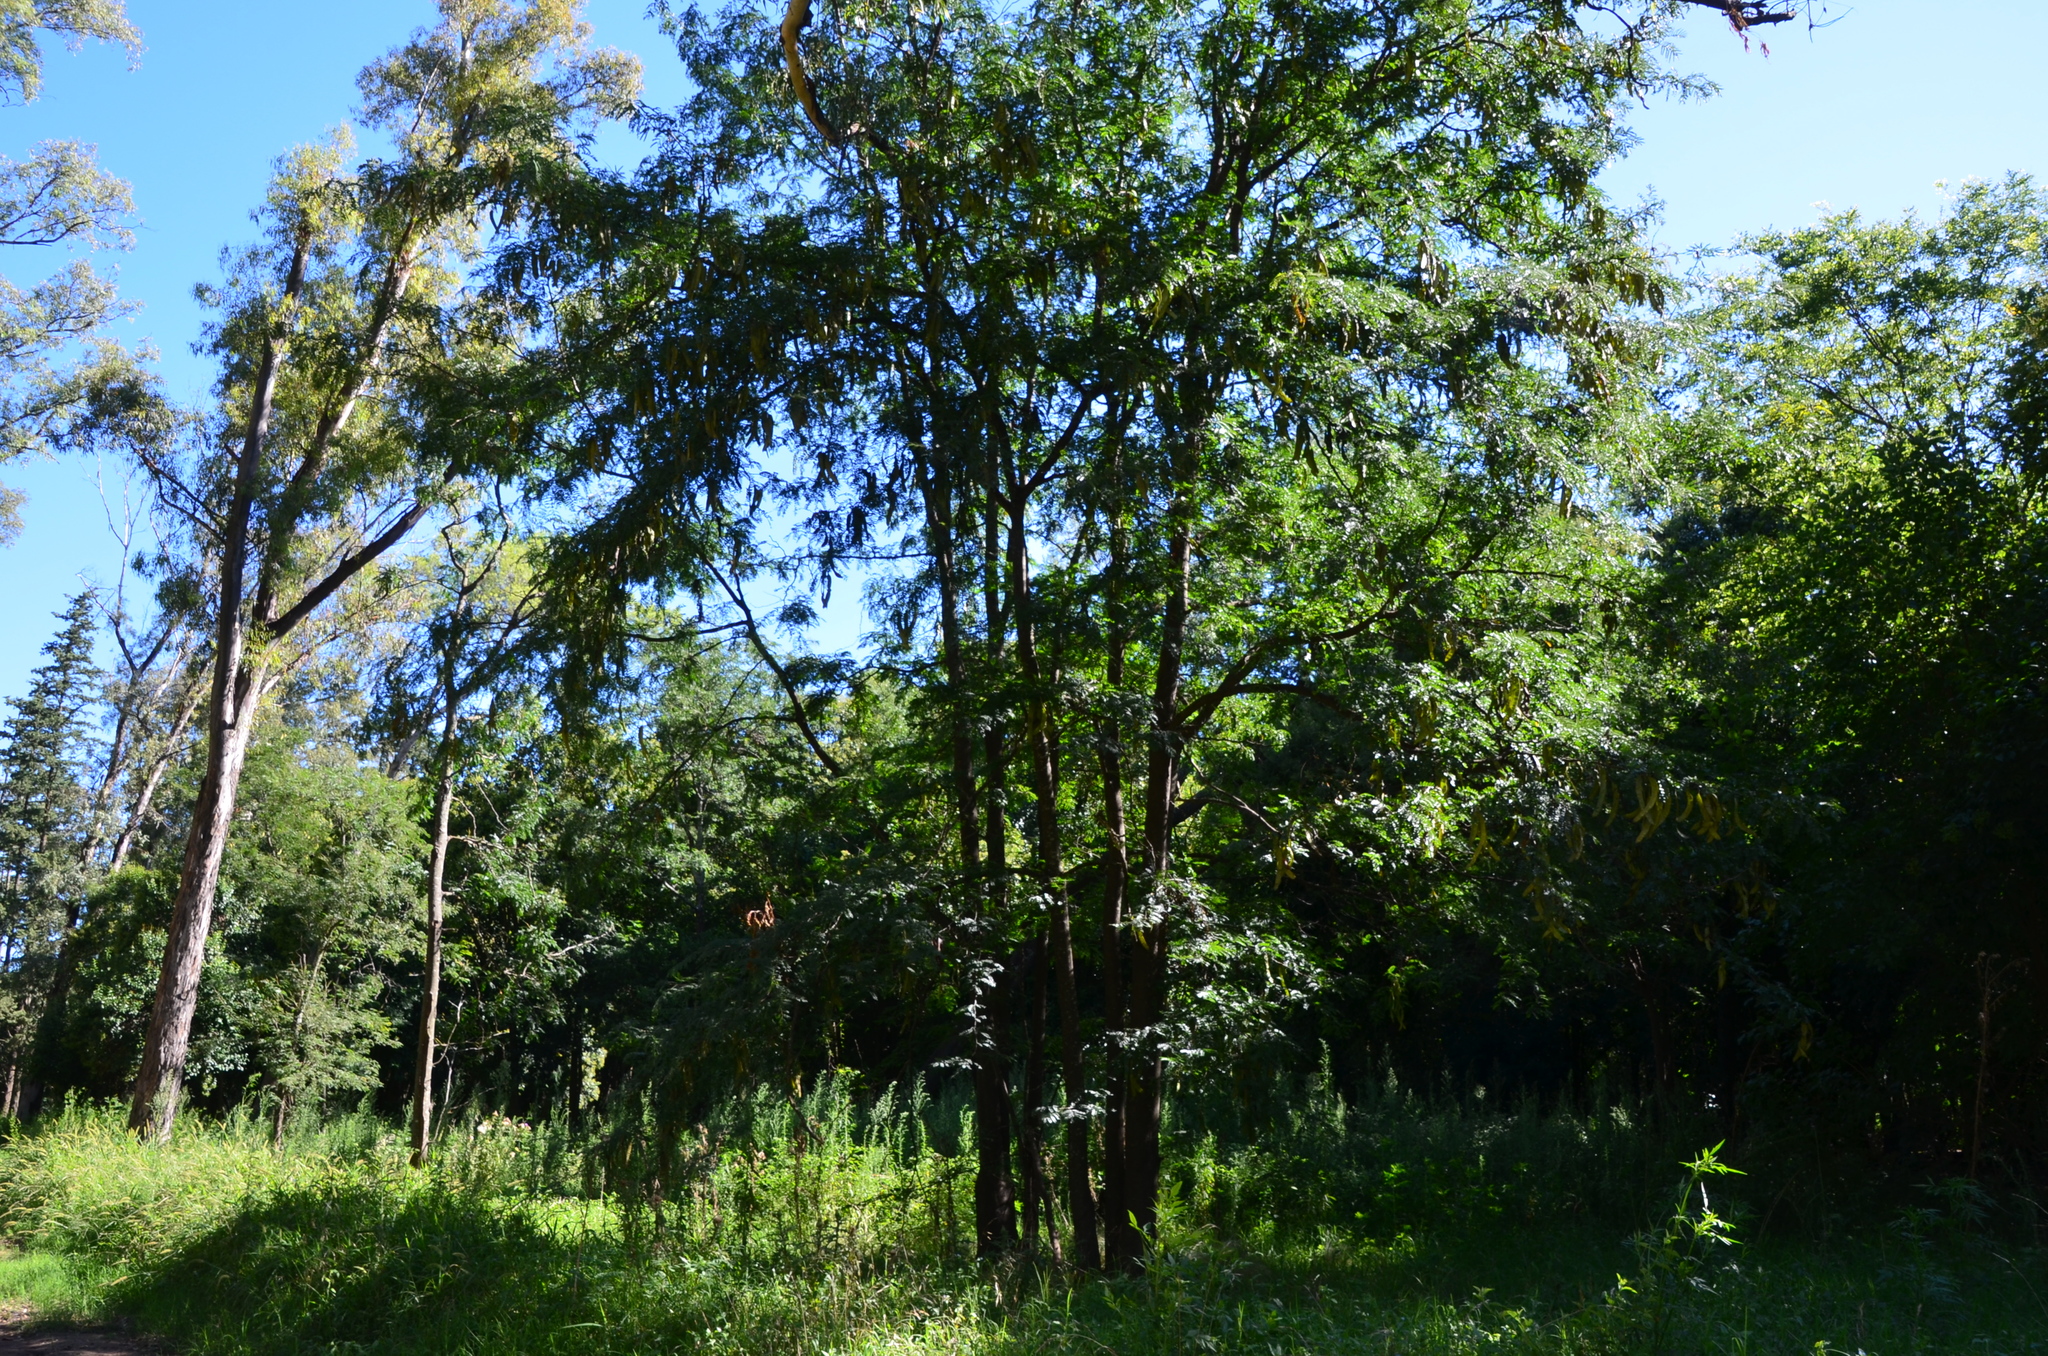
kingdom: Plantae
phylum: Tracheophyta
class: Magnoliopsida
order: Fabales
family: Fabaceae
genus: Gleditsia
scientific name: Gleditsia triacanthos
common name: Common honeylocust
